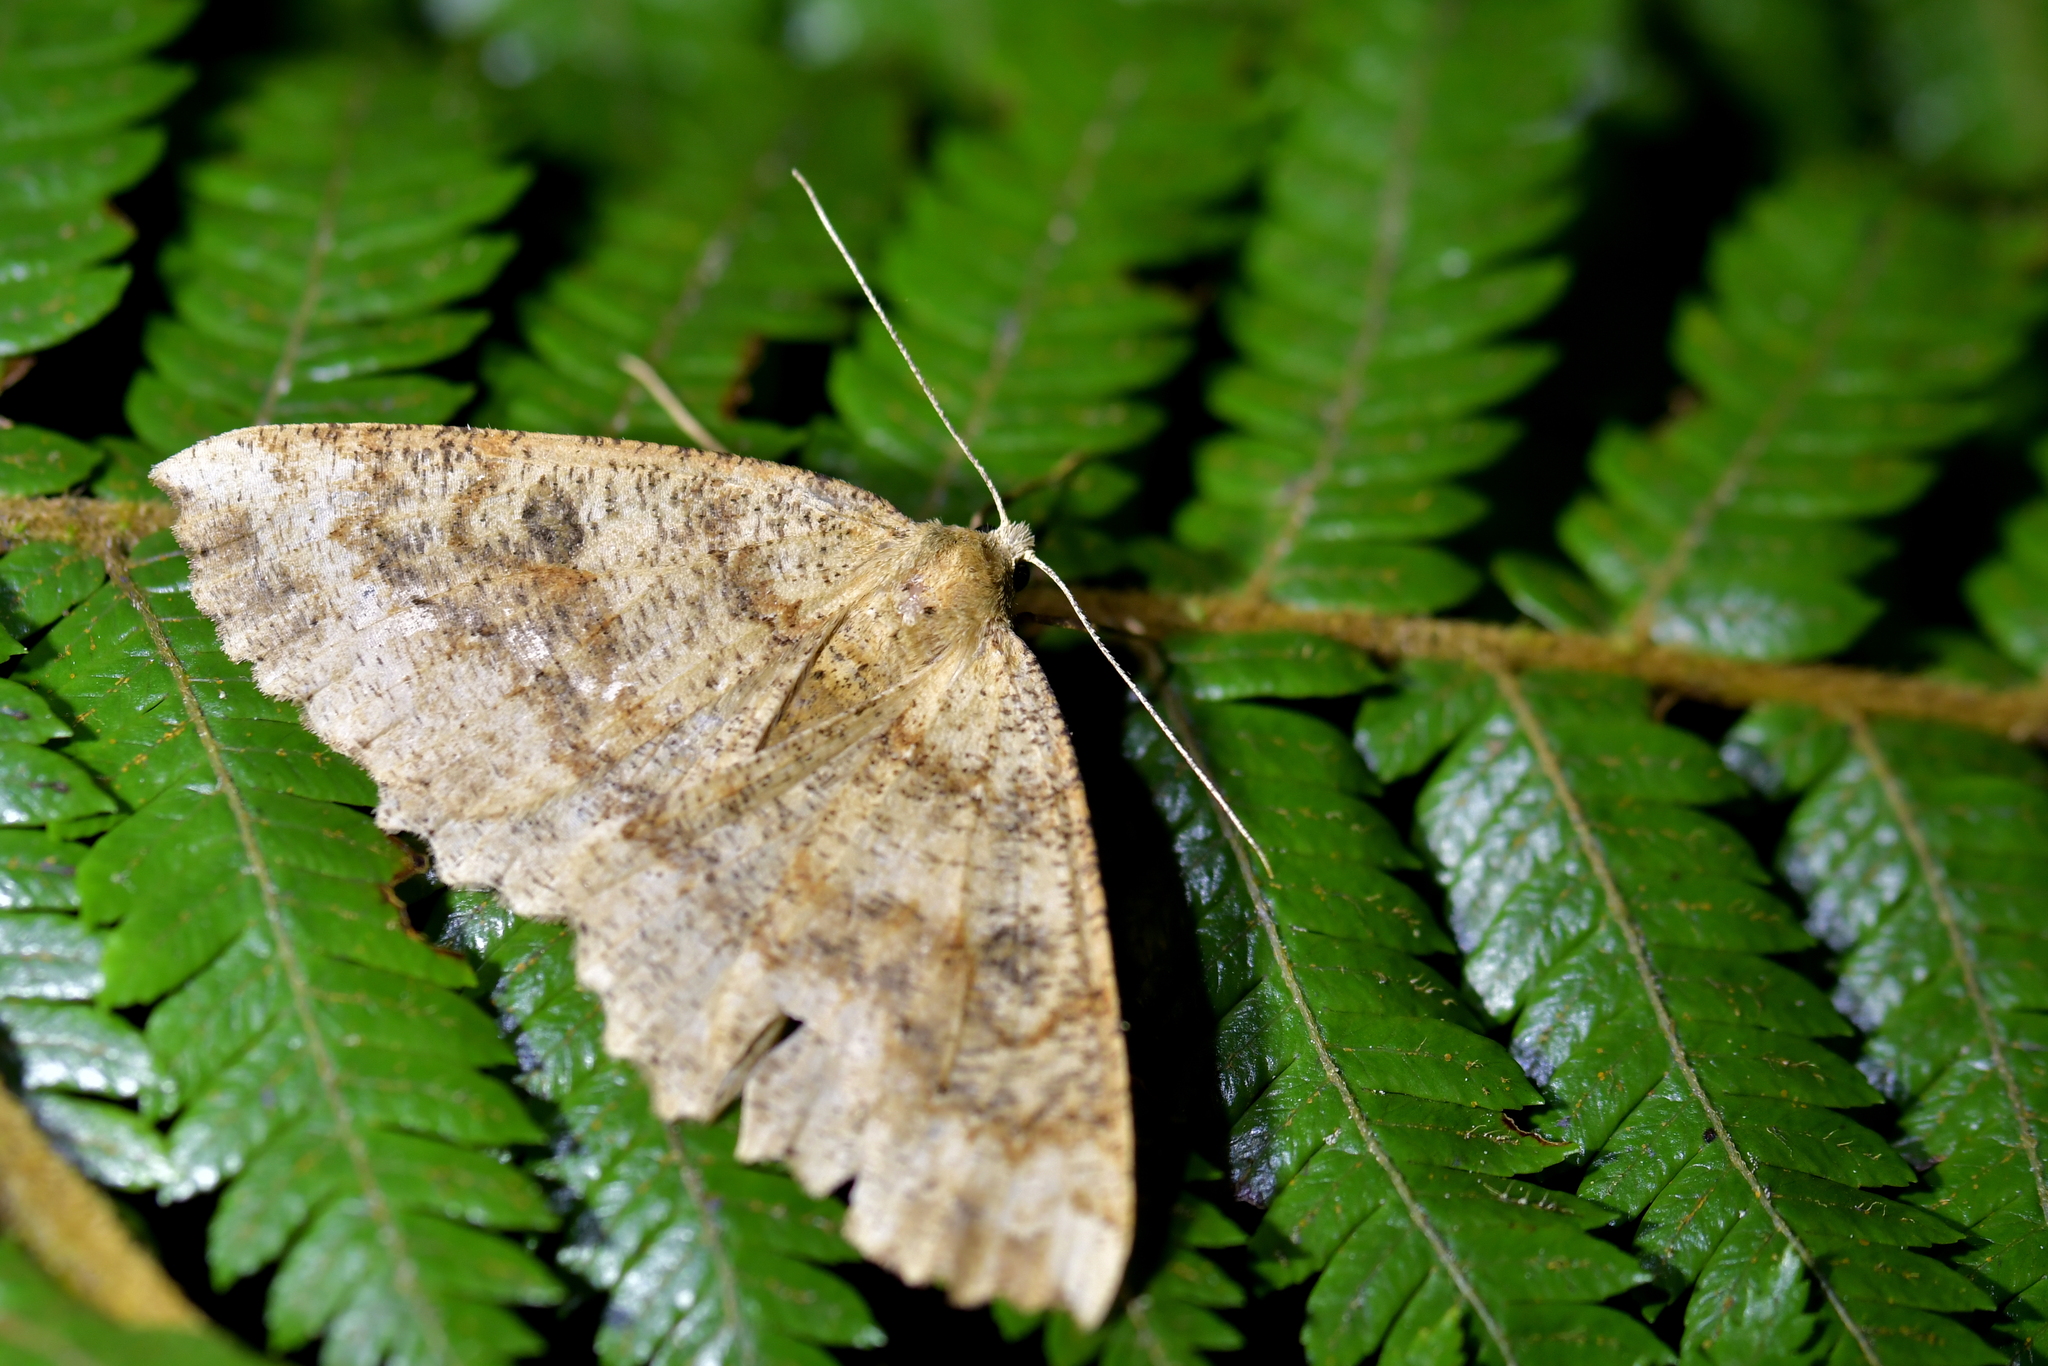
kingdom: Animalia
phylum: Arthropoda
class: Insecta
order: Lepidoptera
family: Geometridae
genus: Cleora
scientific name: Cleora scriptaria
